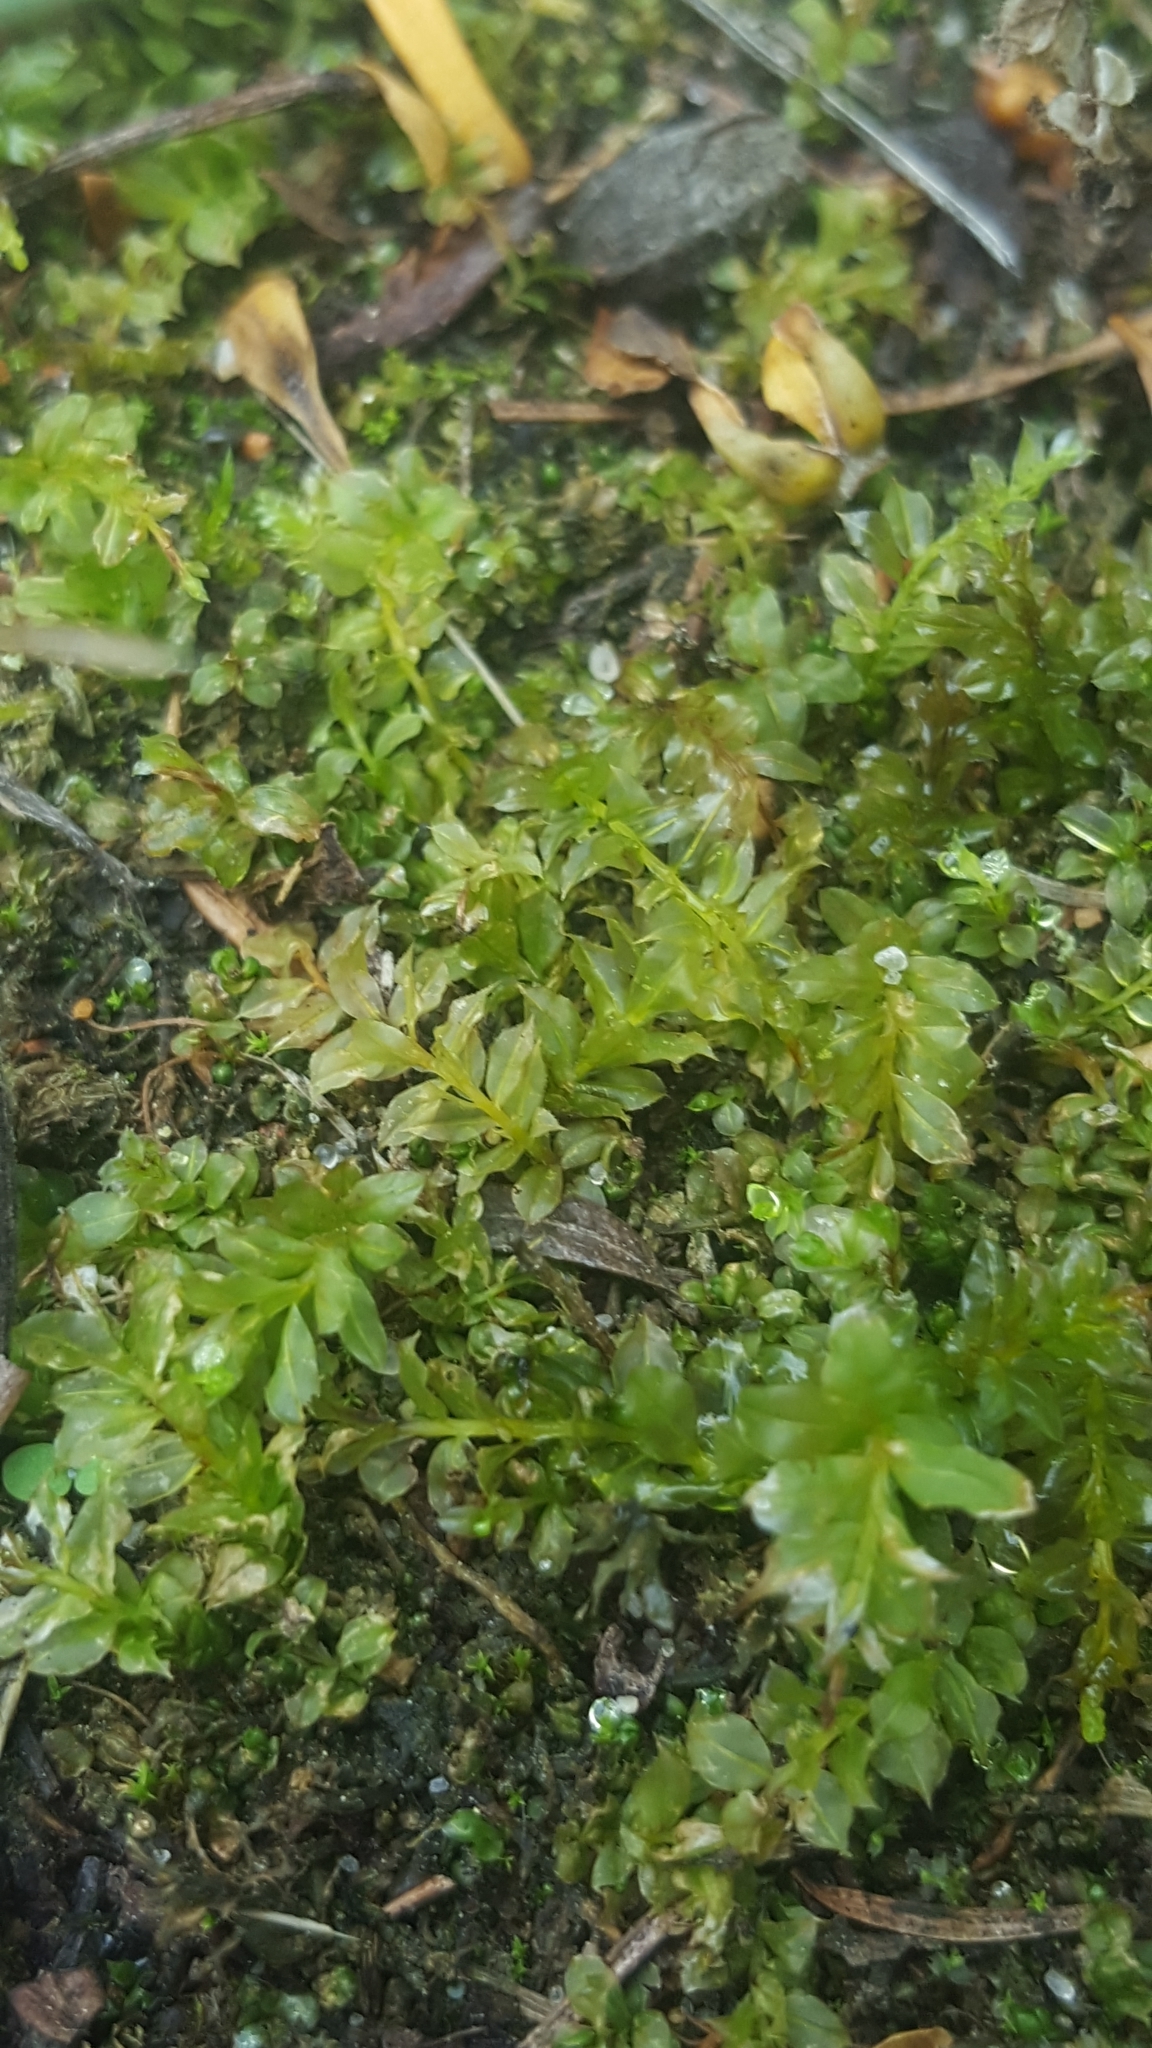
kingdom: Plantae
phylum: Bryophyta
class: Bryopsida
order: Bryales
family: Mniaceae
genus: Plagiomnium
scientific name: Plagiomnium undulatum
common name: Hart's-tongue thyme-moss
